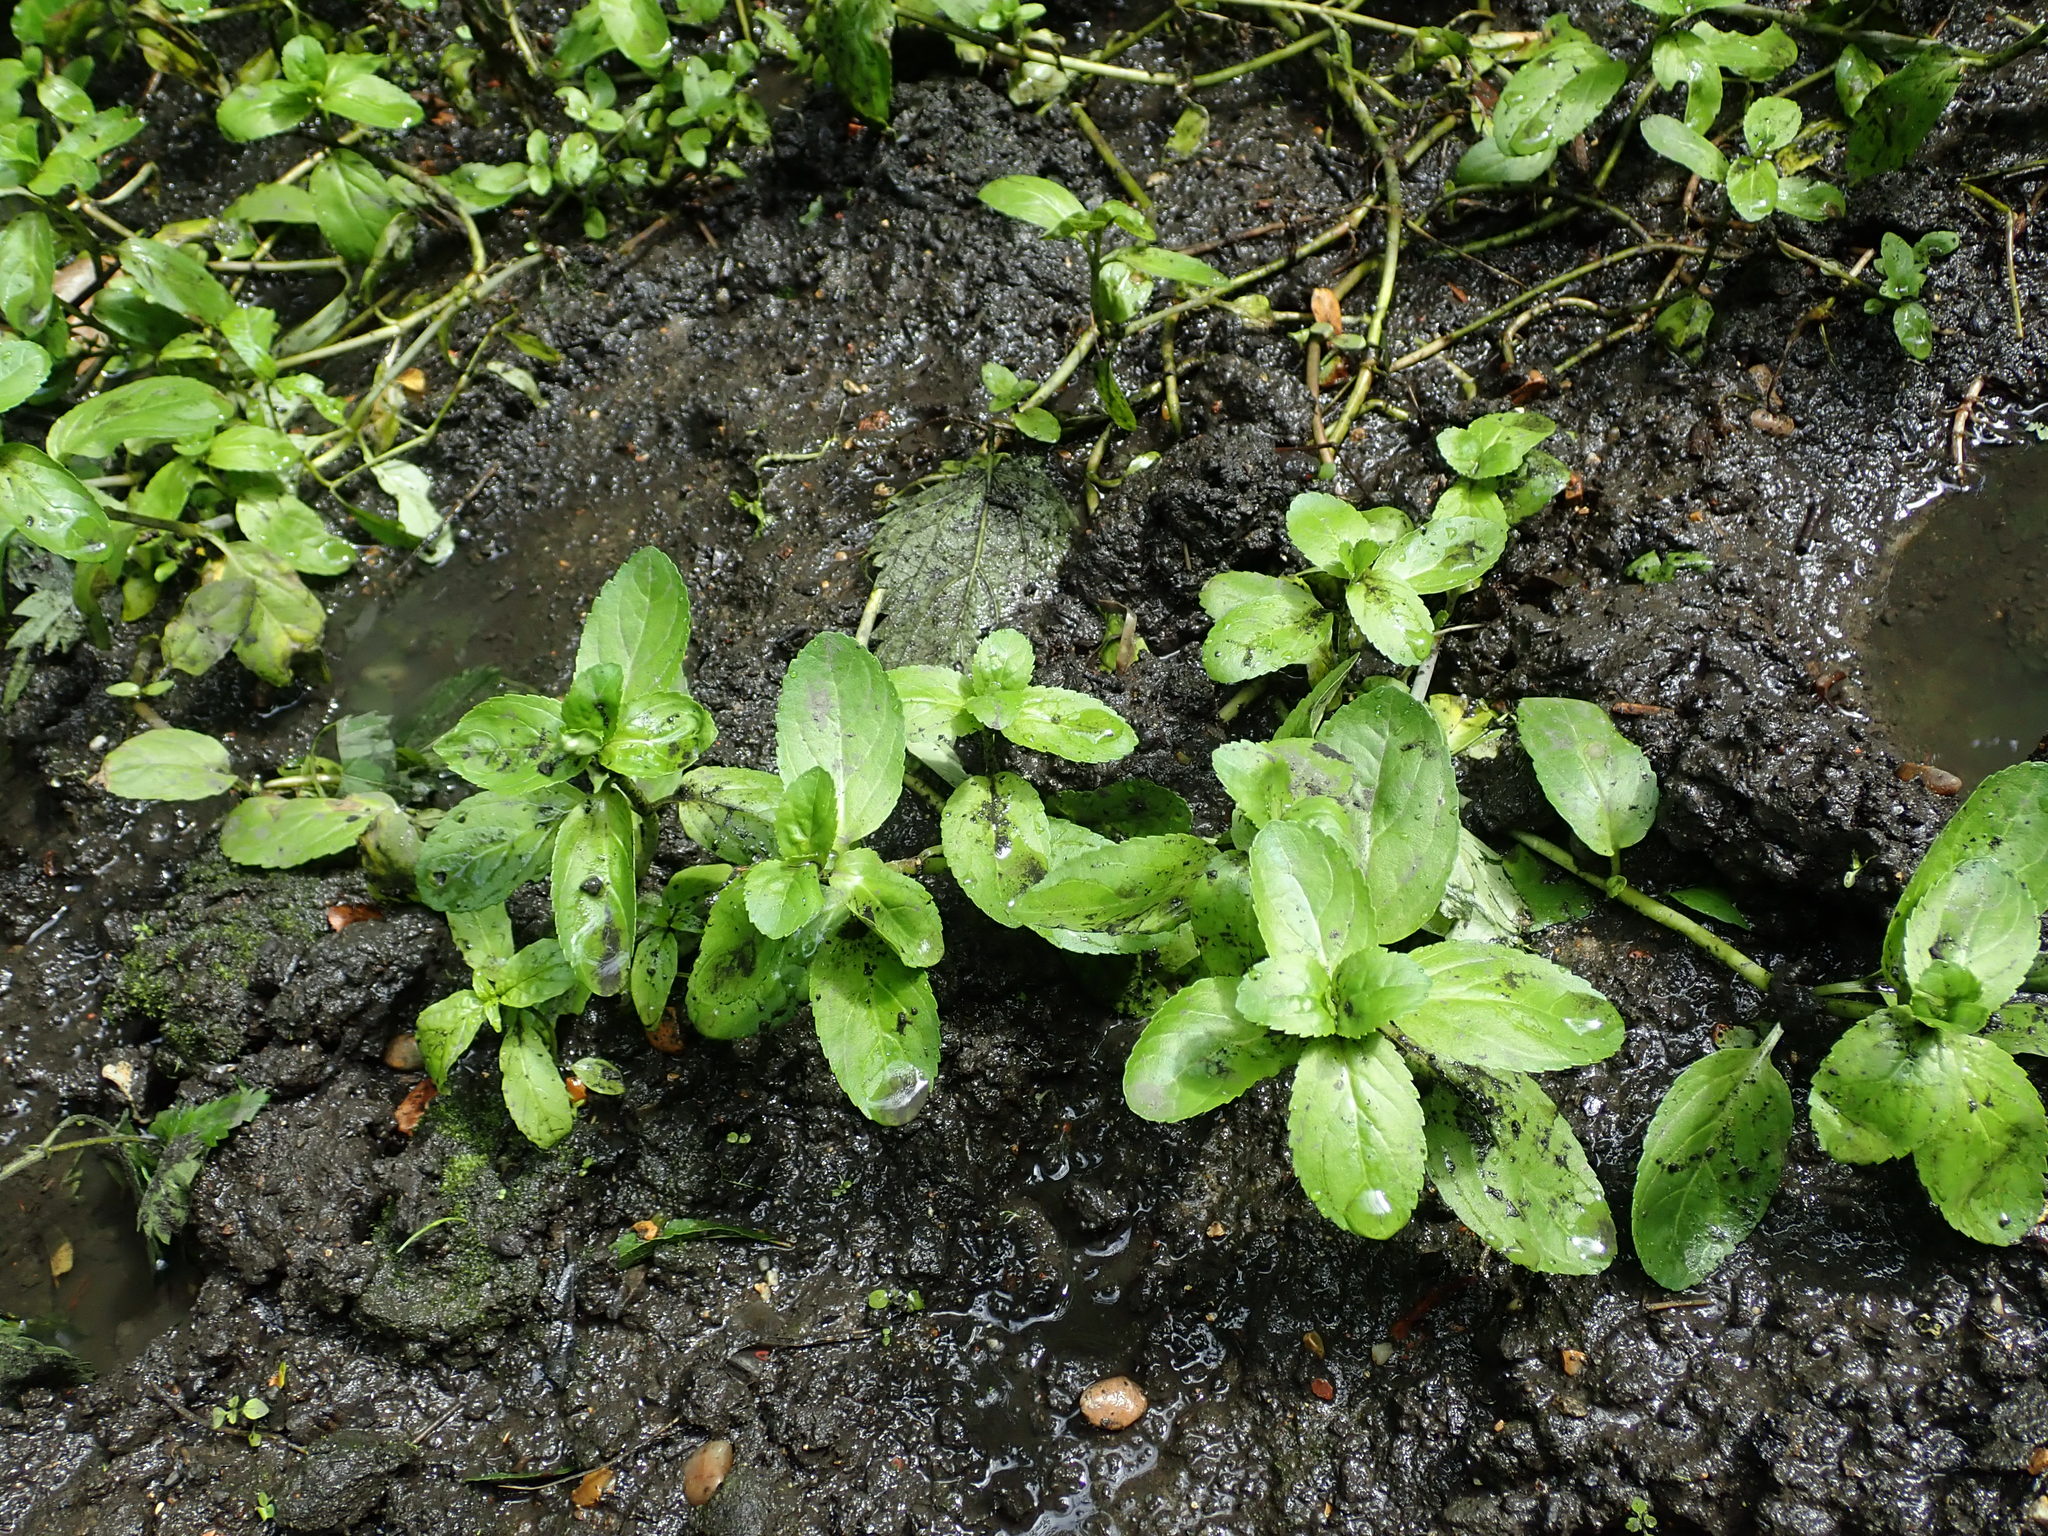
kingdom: Plantae
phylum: Tracheophyta
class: Magnoliopsida
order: Lamiales
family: Plantaginaceae
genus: Veronica
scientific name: Veronica beccabunga
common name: Brooklime
